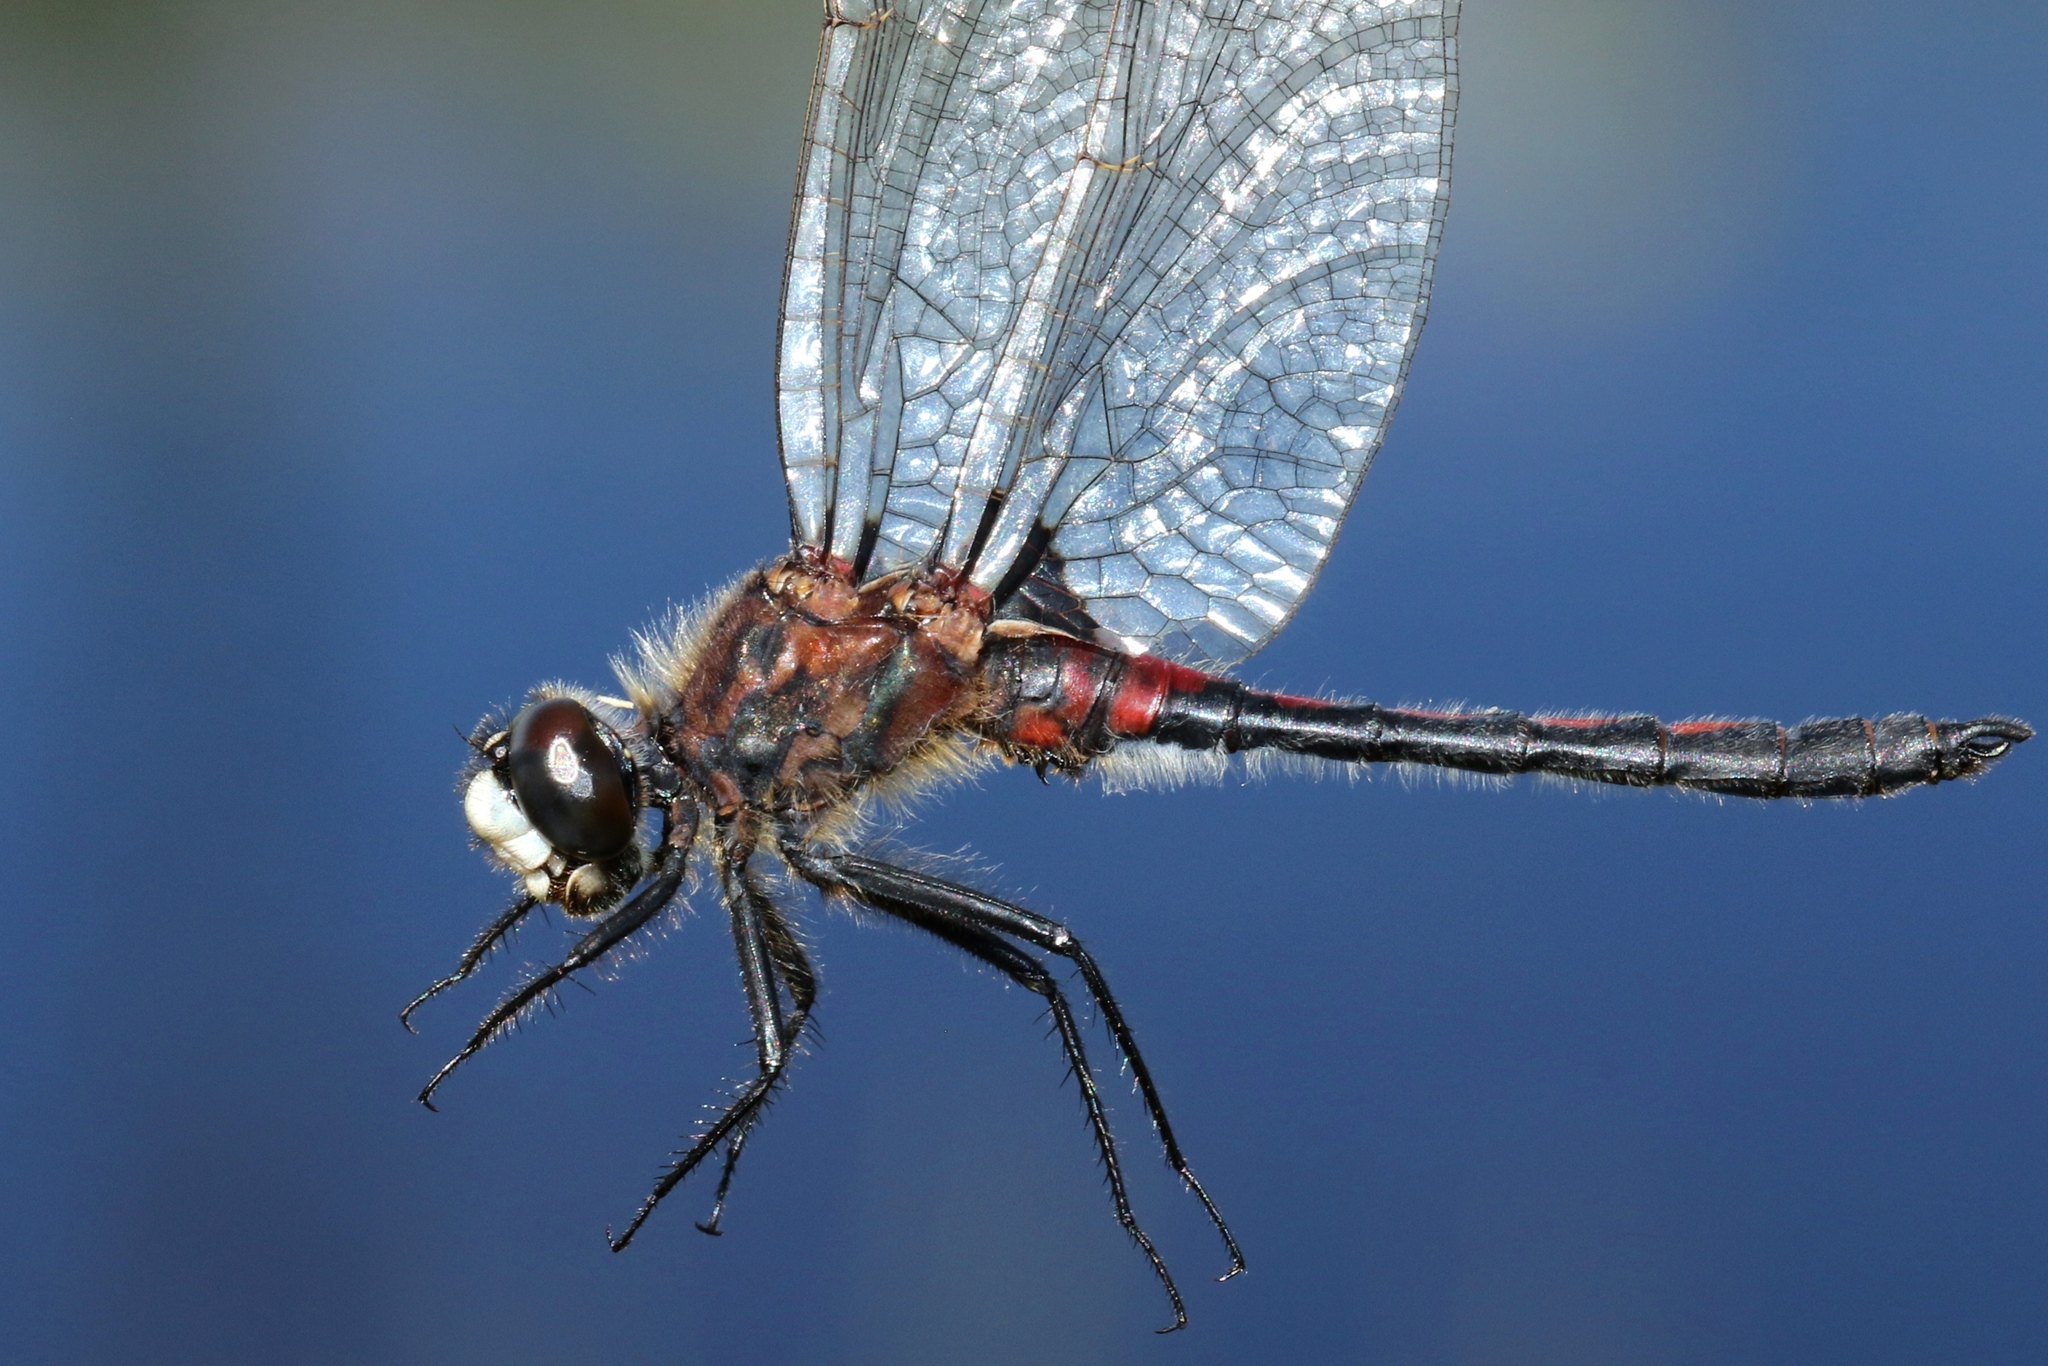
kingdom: Animalia
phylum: Arthropoda
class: Insecta
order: Odonata
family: Libellulidae
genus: Leucorrhinia
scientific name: Leucorrhinia hudsonica
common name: Hudsonian whiteface
